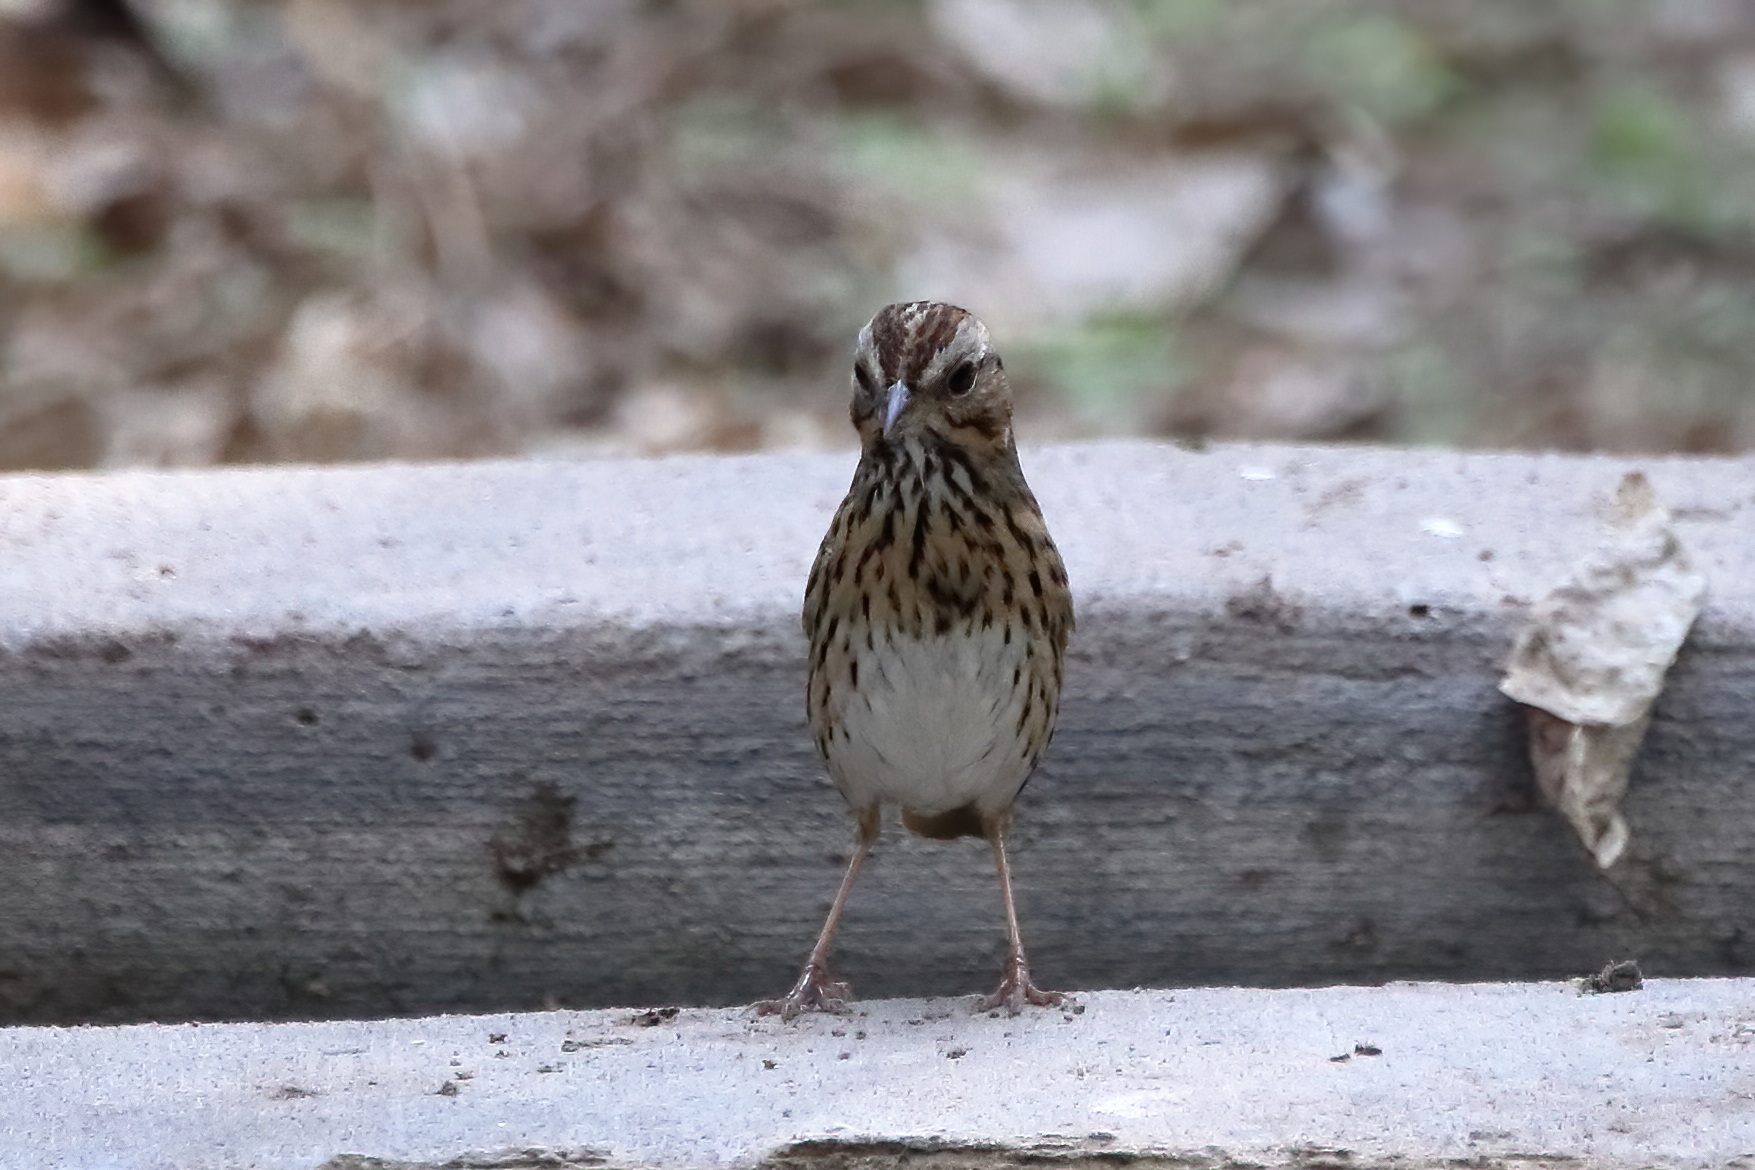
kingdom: Animalia
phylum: Chordata
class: Aves
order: Passeriformes
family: Passerellidae
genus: Melospiza
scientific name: Melospiza lincolnii
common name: Lincoln's sparrow
